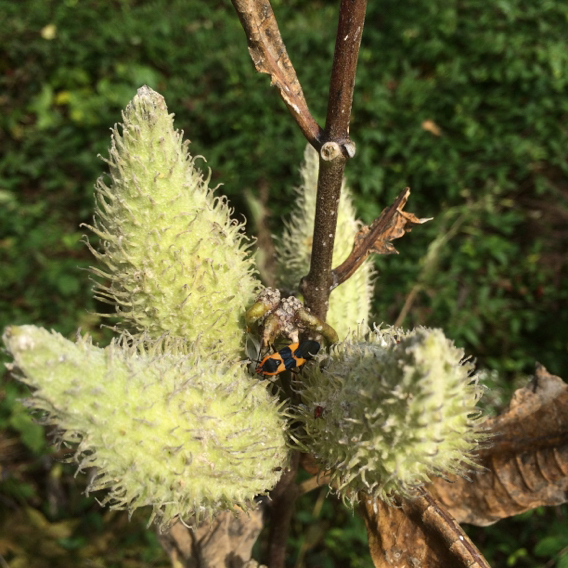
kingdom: Animalia
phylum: Arthropoda
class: Insecta
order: Hemiptera
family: Lygaeidae
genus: Oncopeltus
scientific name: Oncopeltus fasciatus
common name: Large milkweed bug
